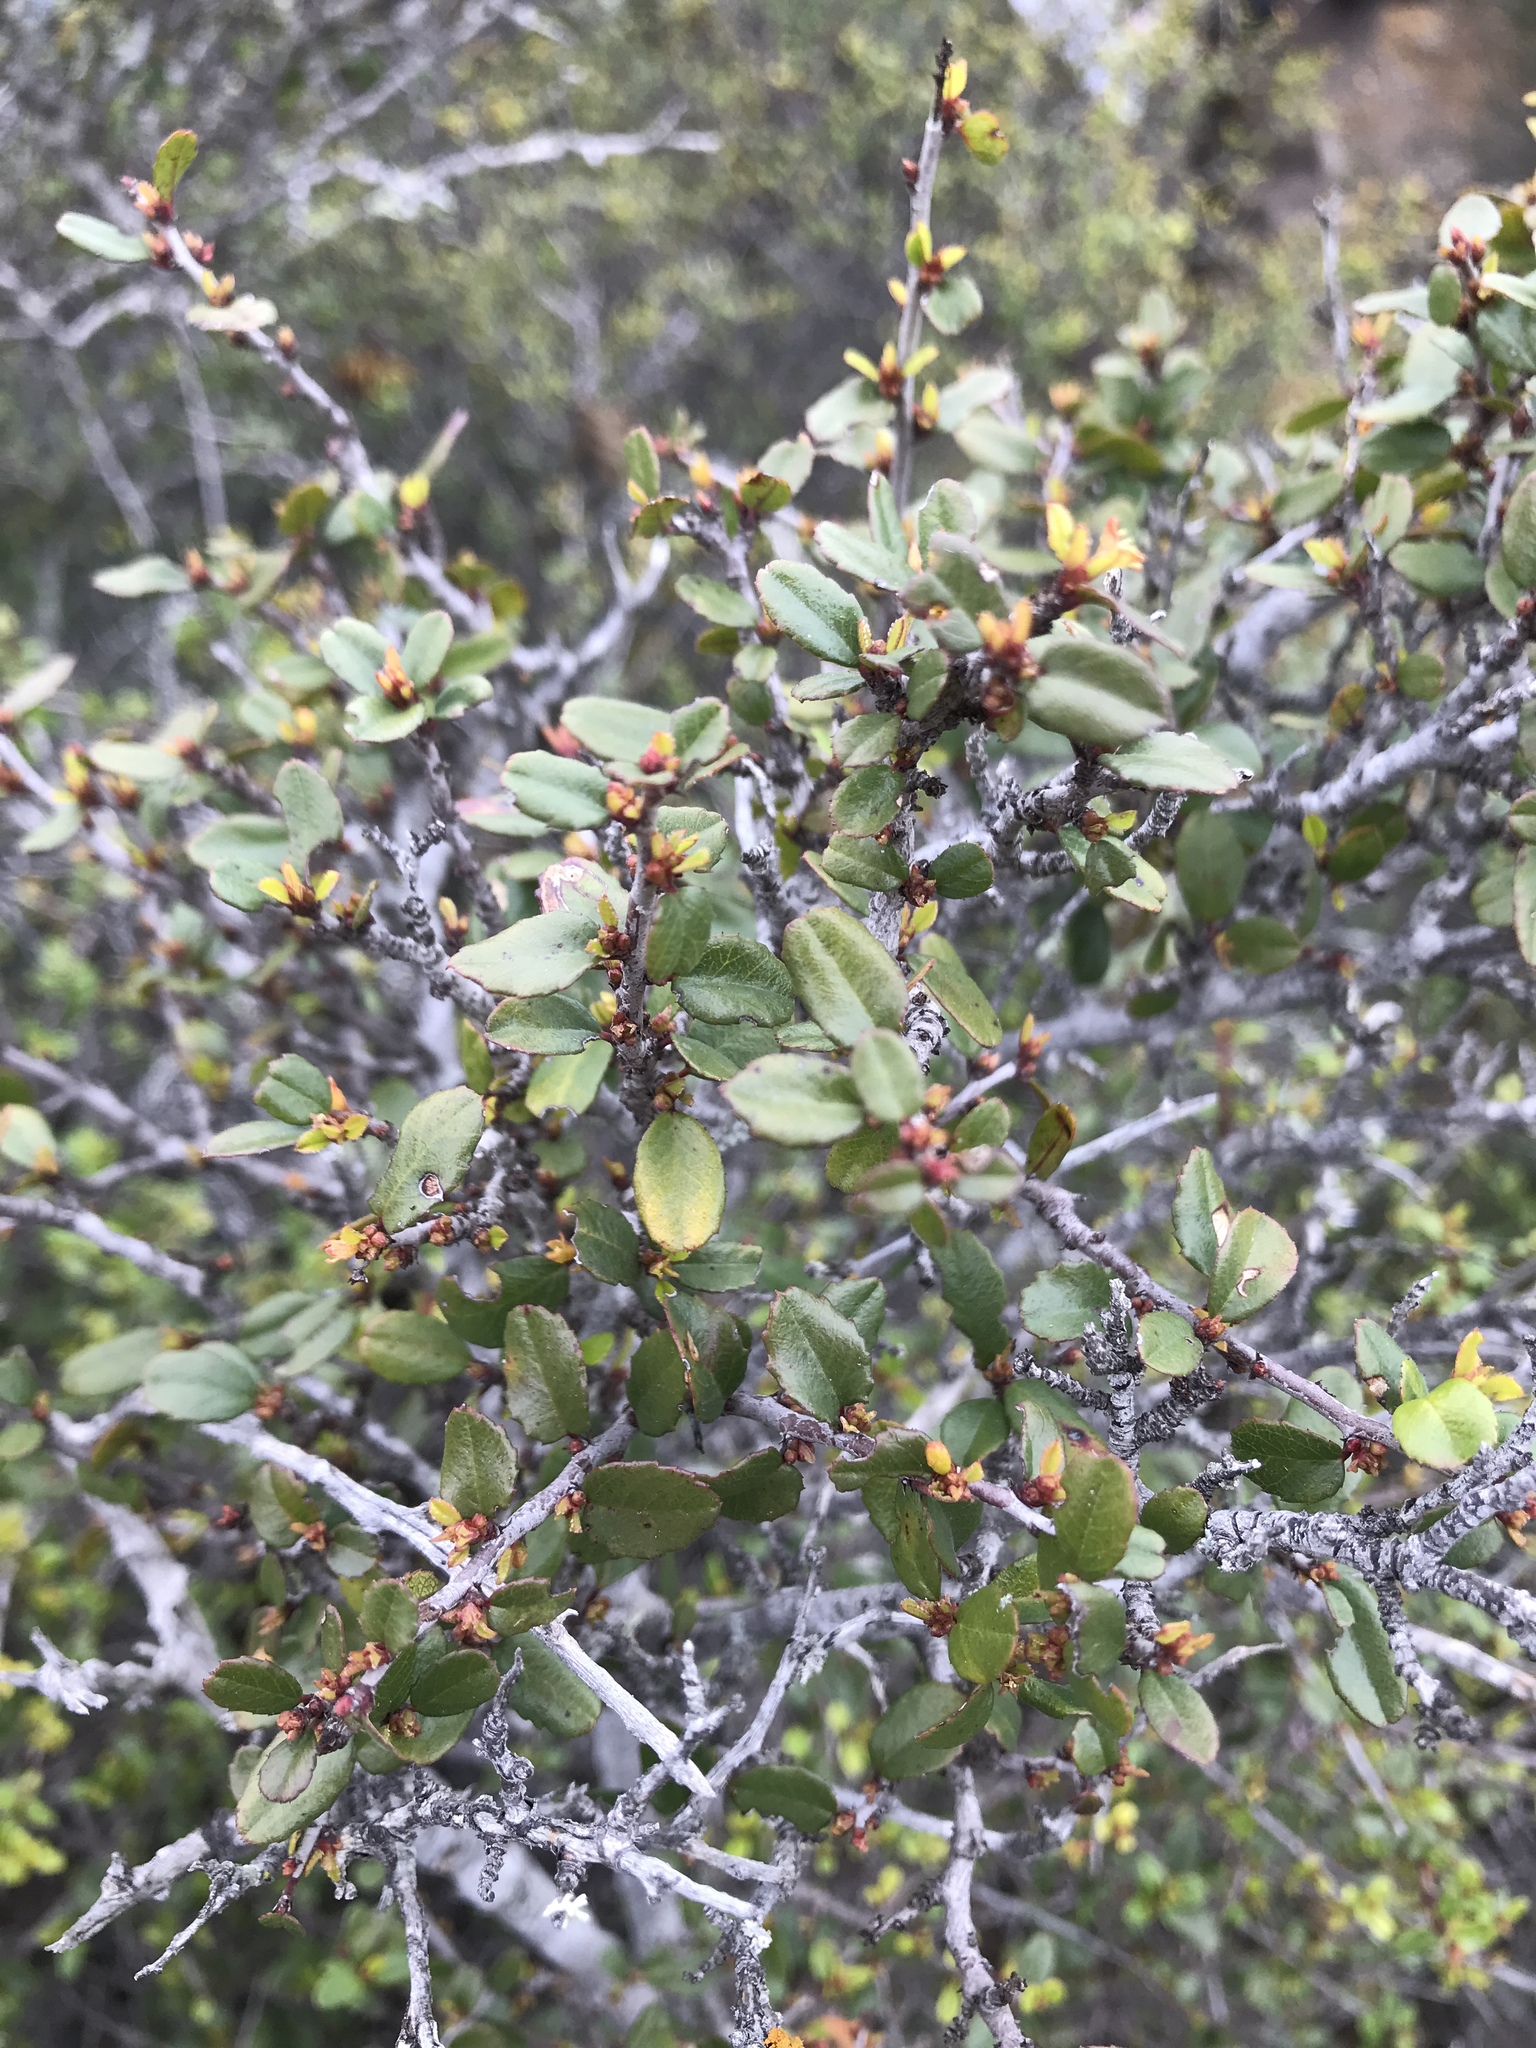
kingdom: Plantae
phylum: Tracheophyta
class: Magnoliopsida
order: Rosales
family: Rhamnaceae
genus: Endotropis
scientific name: Endotropis crocea
